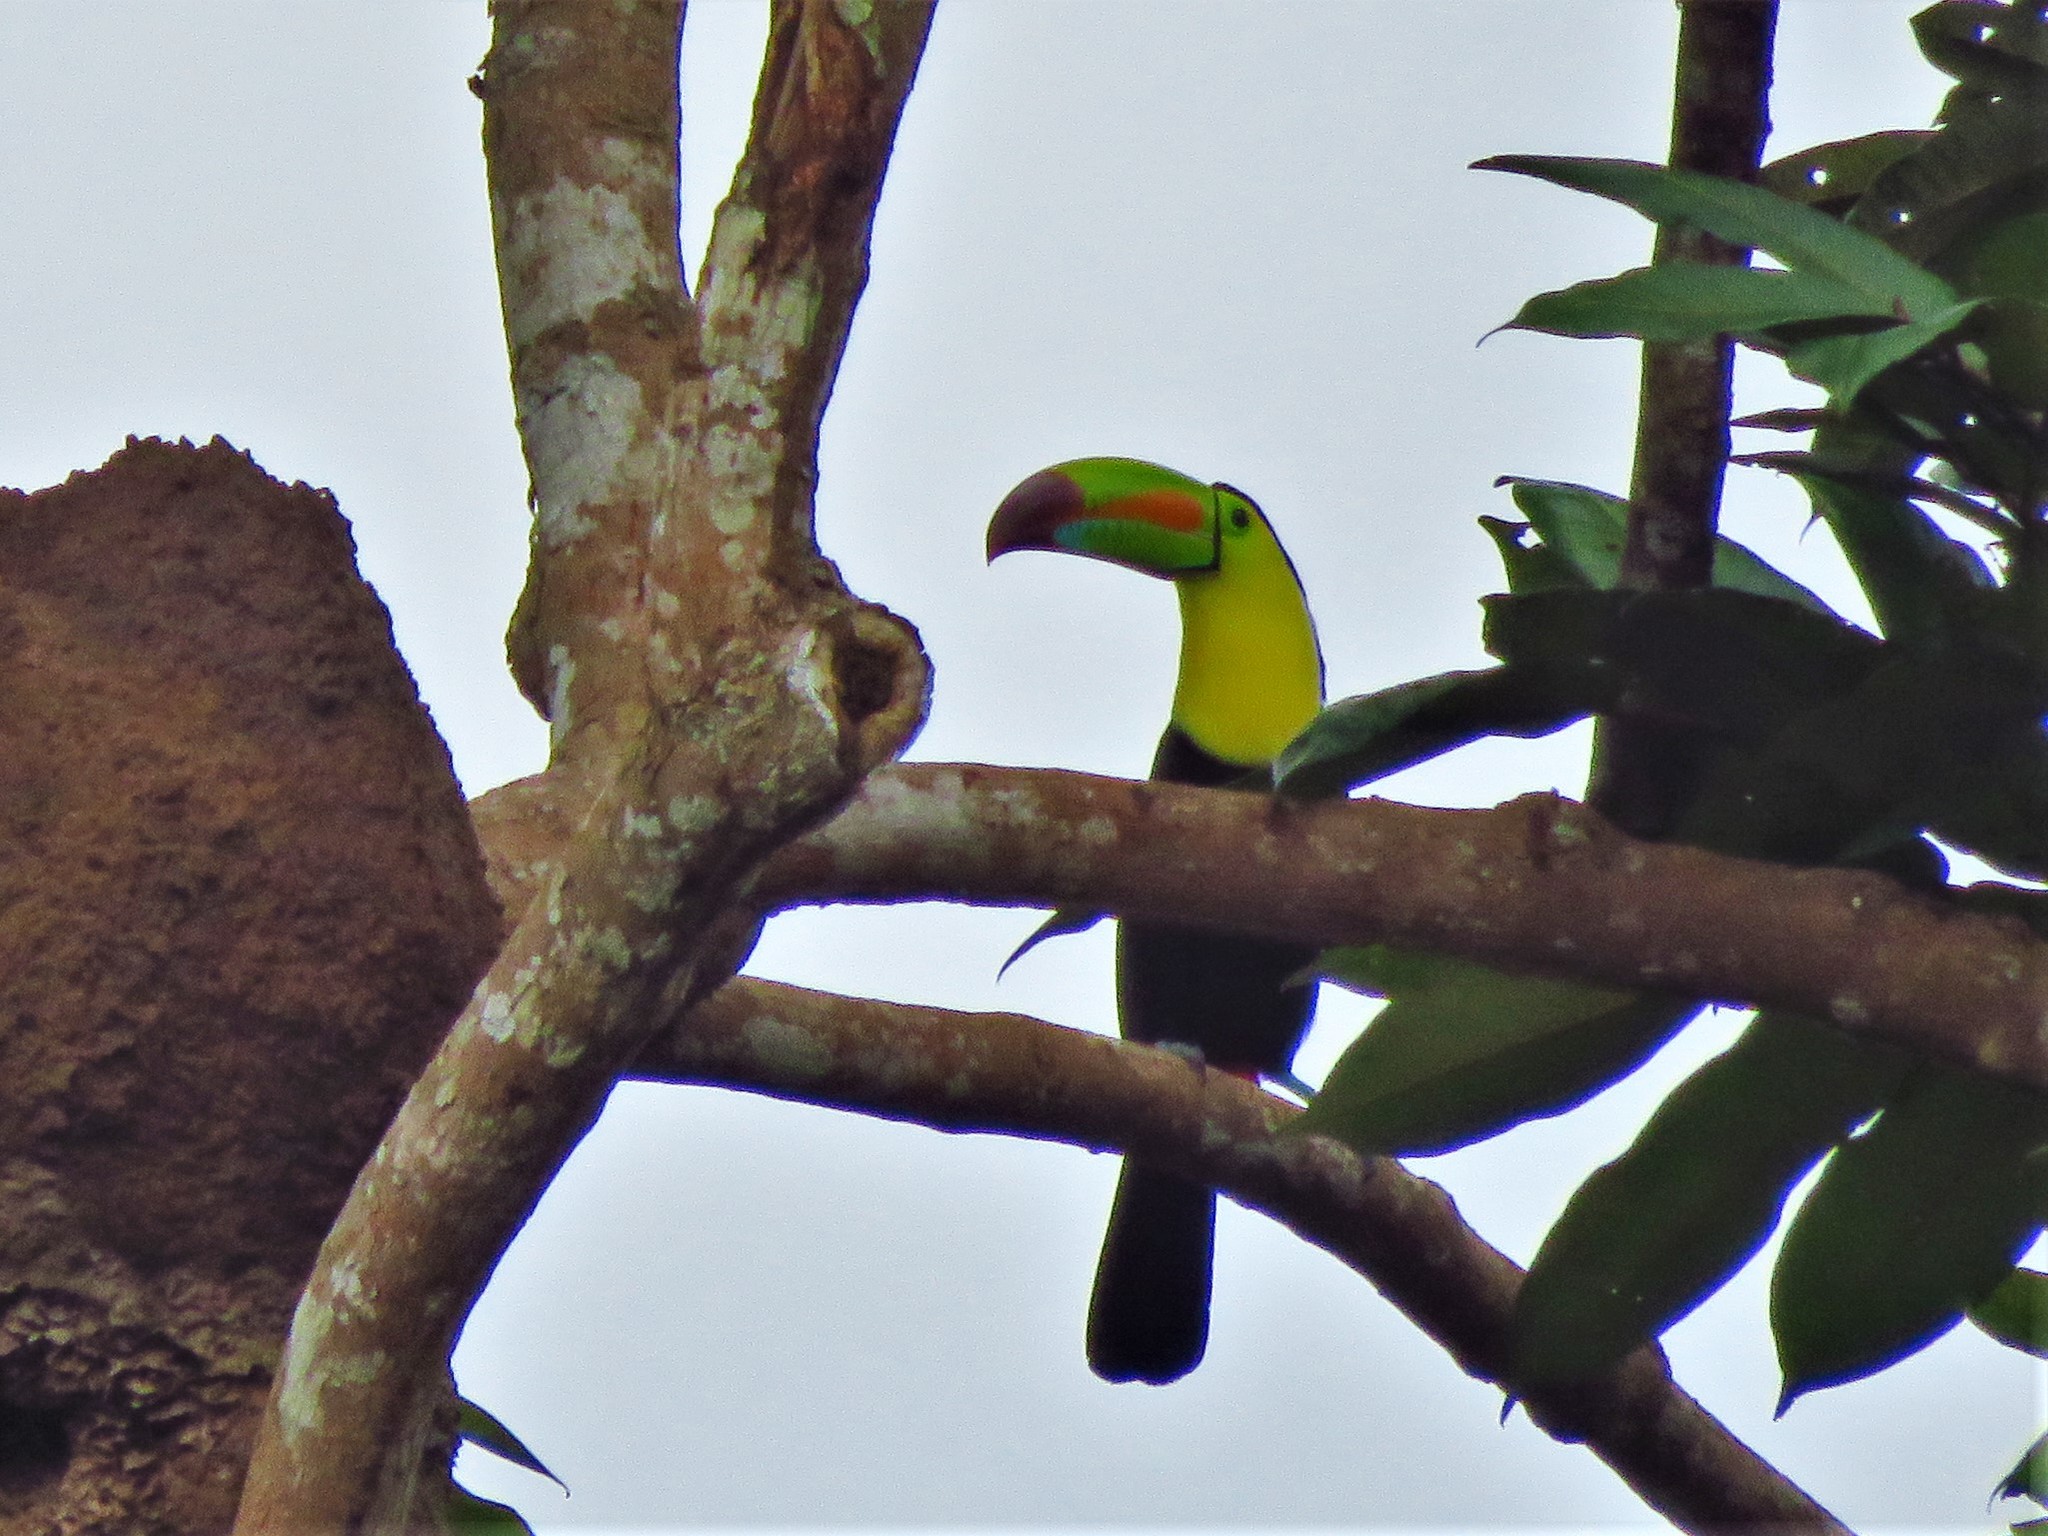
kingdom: Animalia
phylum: Chordata
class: Aves
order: Piciformes
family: Ramphastidae
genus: Ramphastos
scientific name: Ramphastos sulfuratus
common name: Keel-billed toucan
